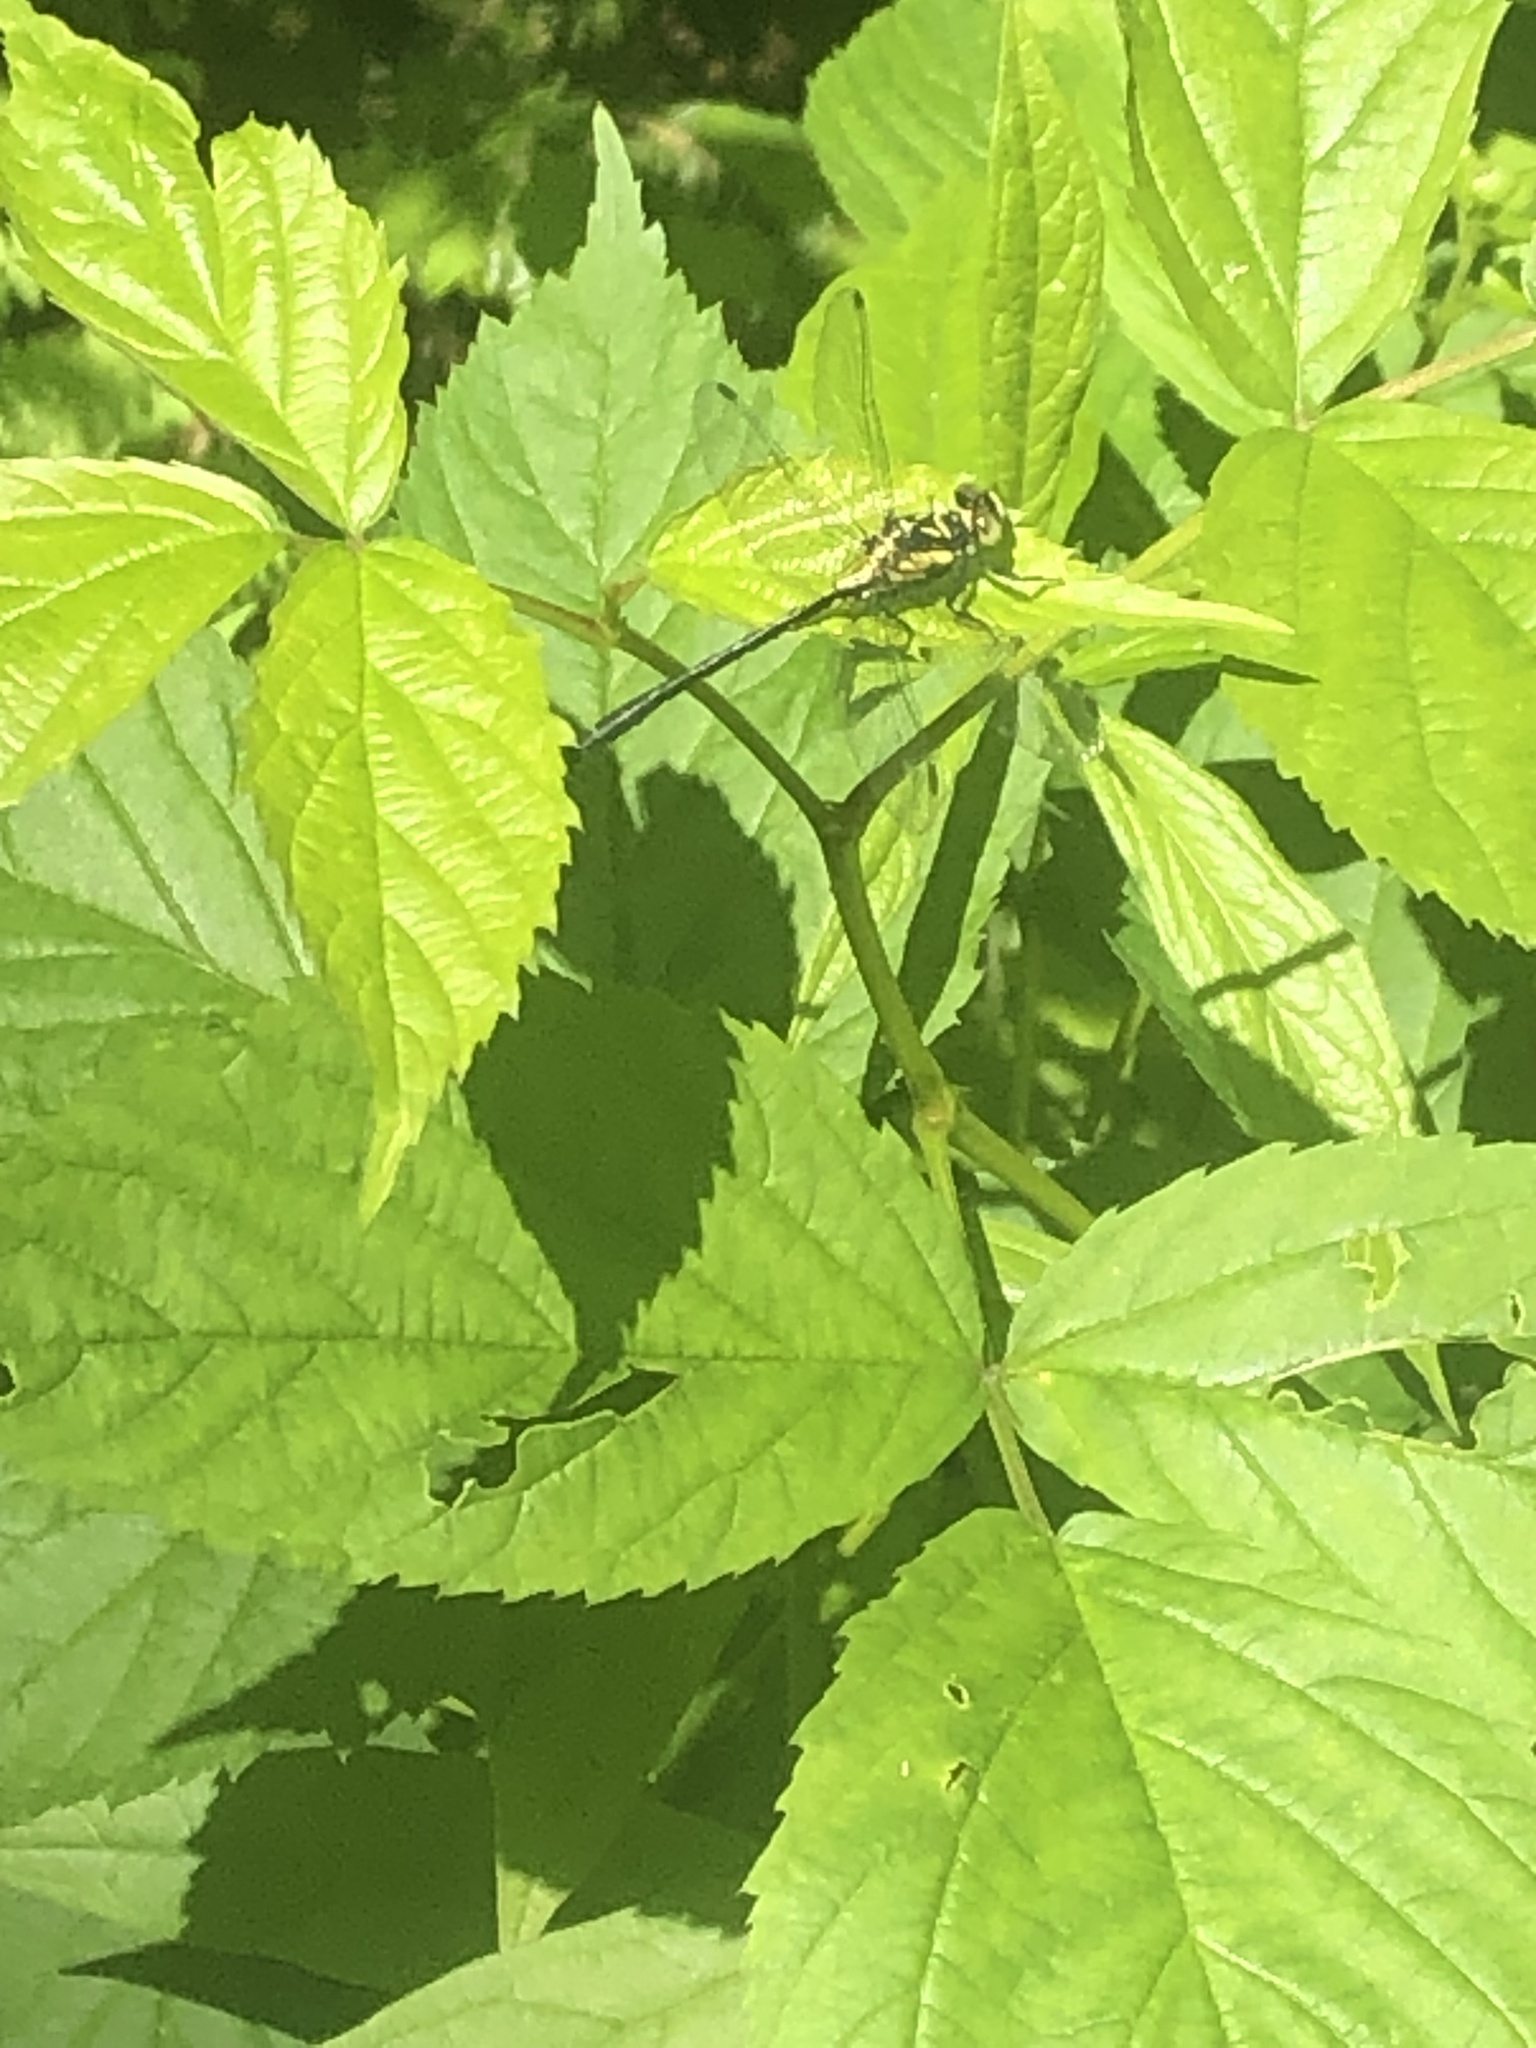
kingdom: Animalia
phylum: Arthropoda
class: Insecta
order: Odonata
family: Gomphidae
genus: Lanthus
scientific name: Lanthus vernalis
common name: Southern pygmy clubtail
